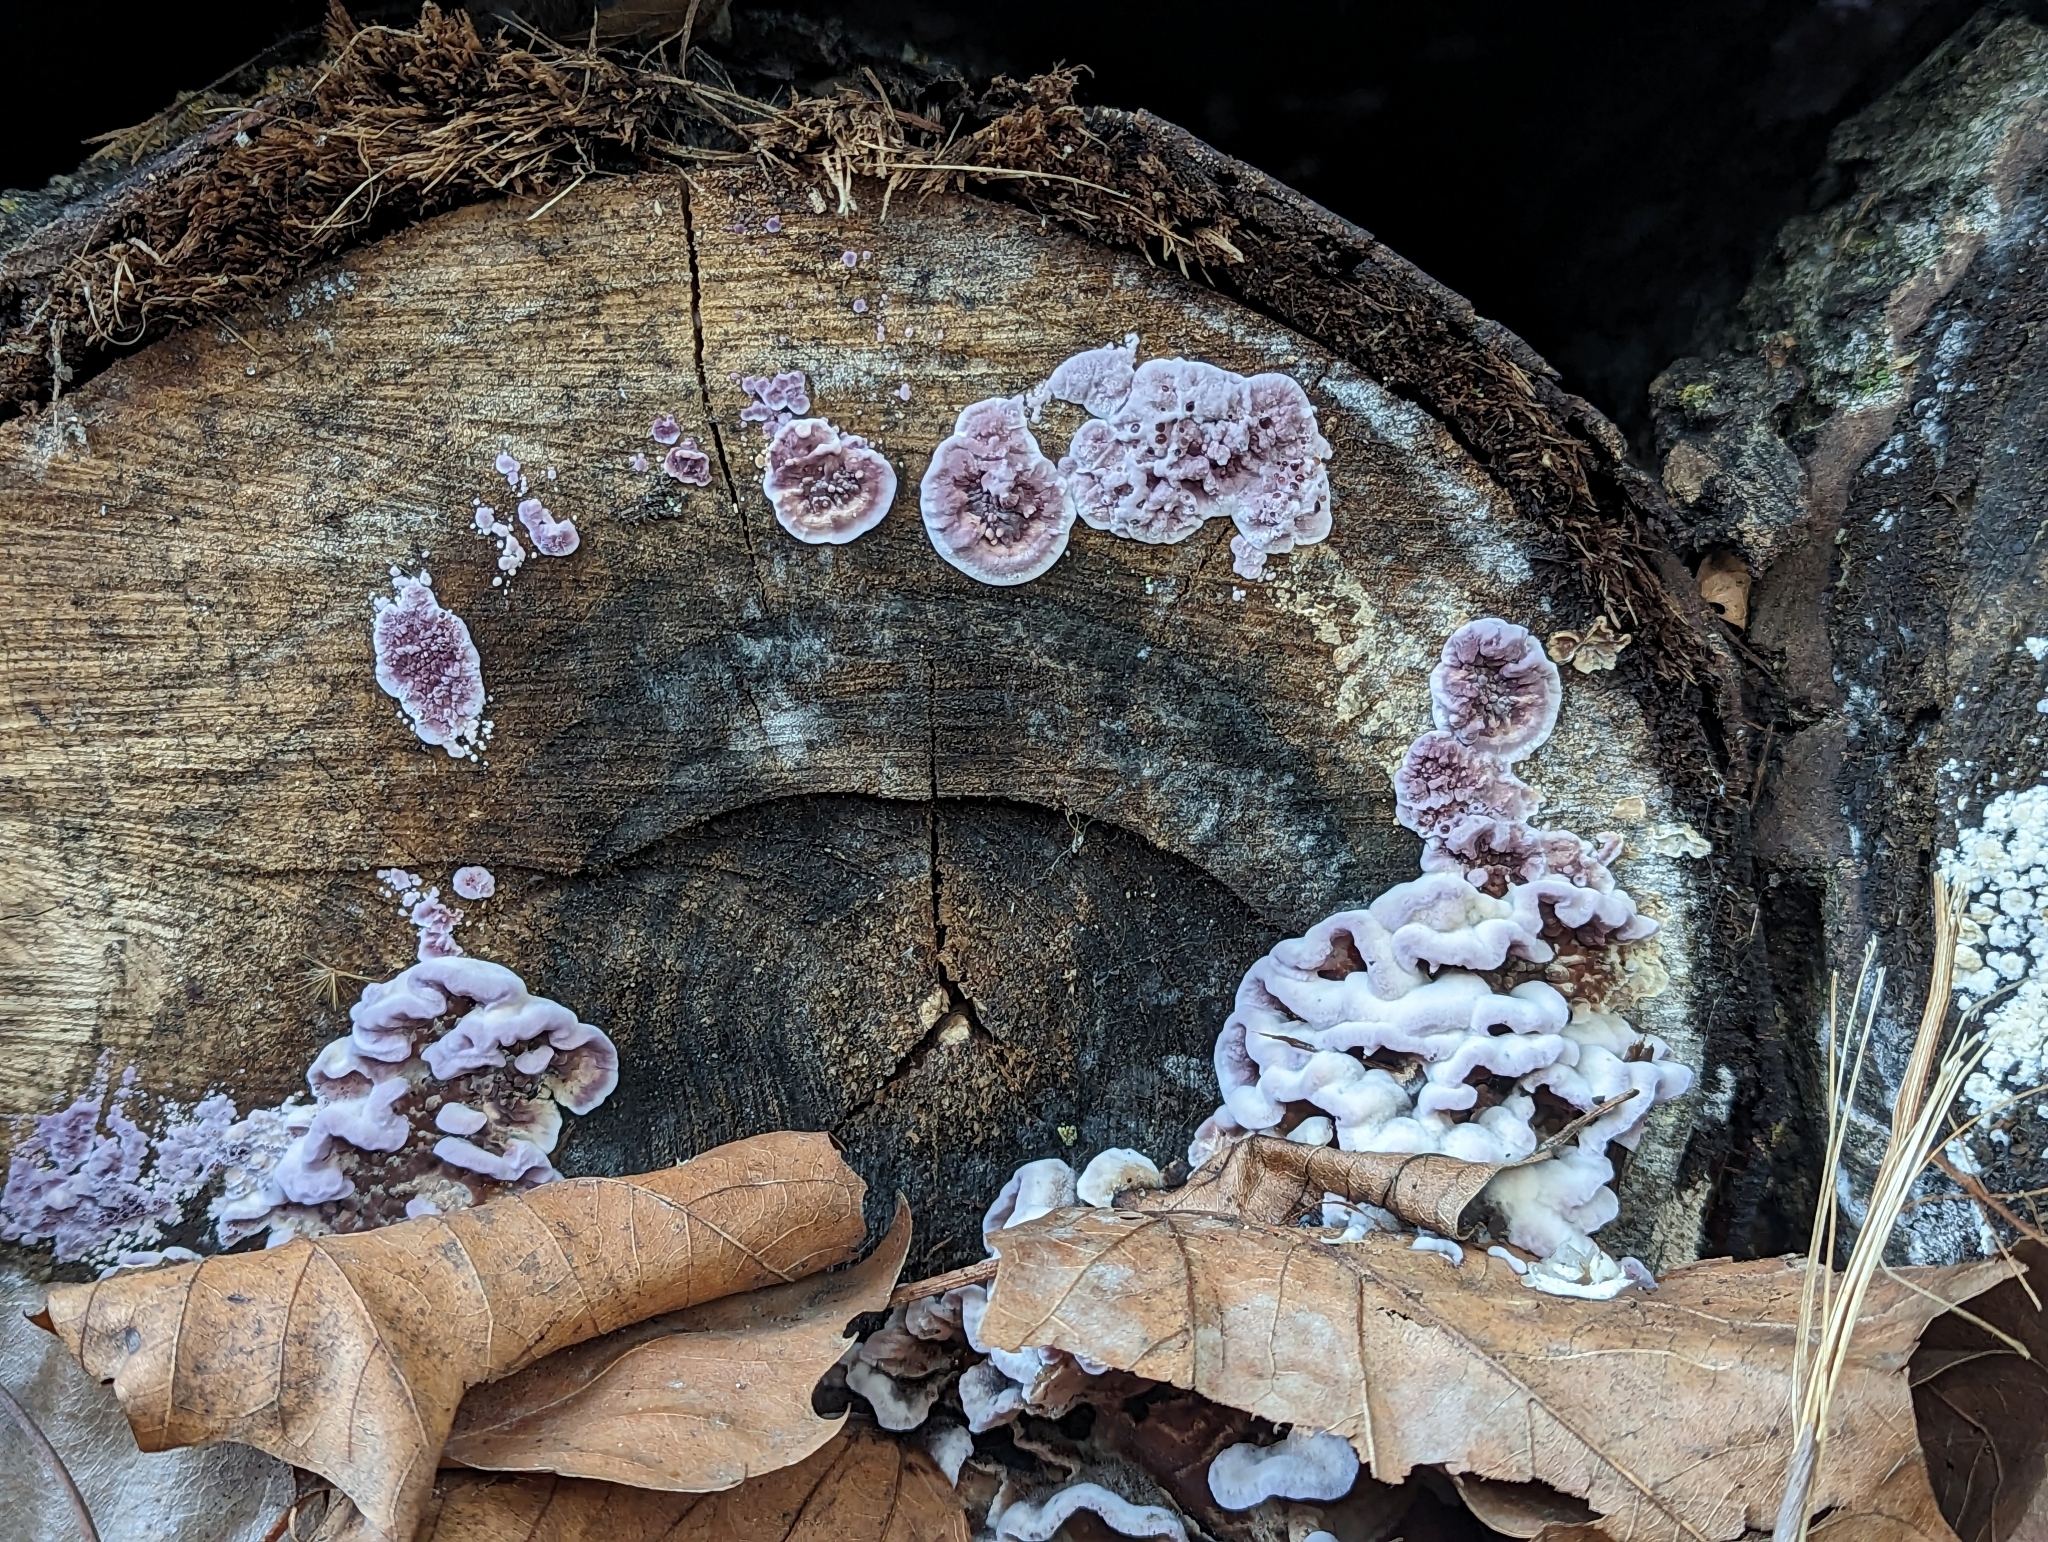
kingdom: Fungi
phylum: Basidiomycota
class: Agaricomycetes
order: Agaricales
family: Cyphellaceae
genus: Chondrostereum
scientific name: Chondrostereum purpureum
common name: Silver leaf disease
